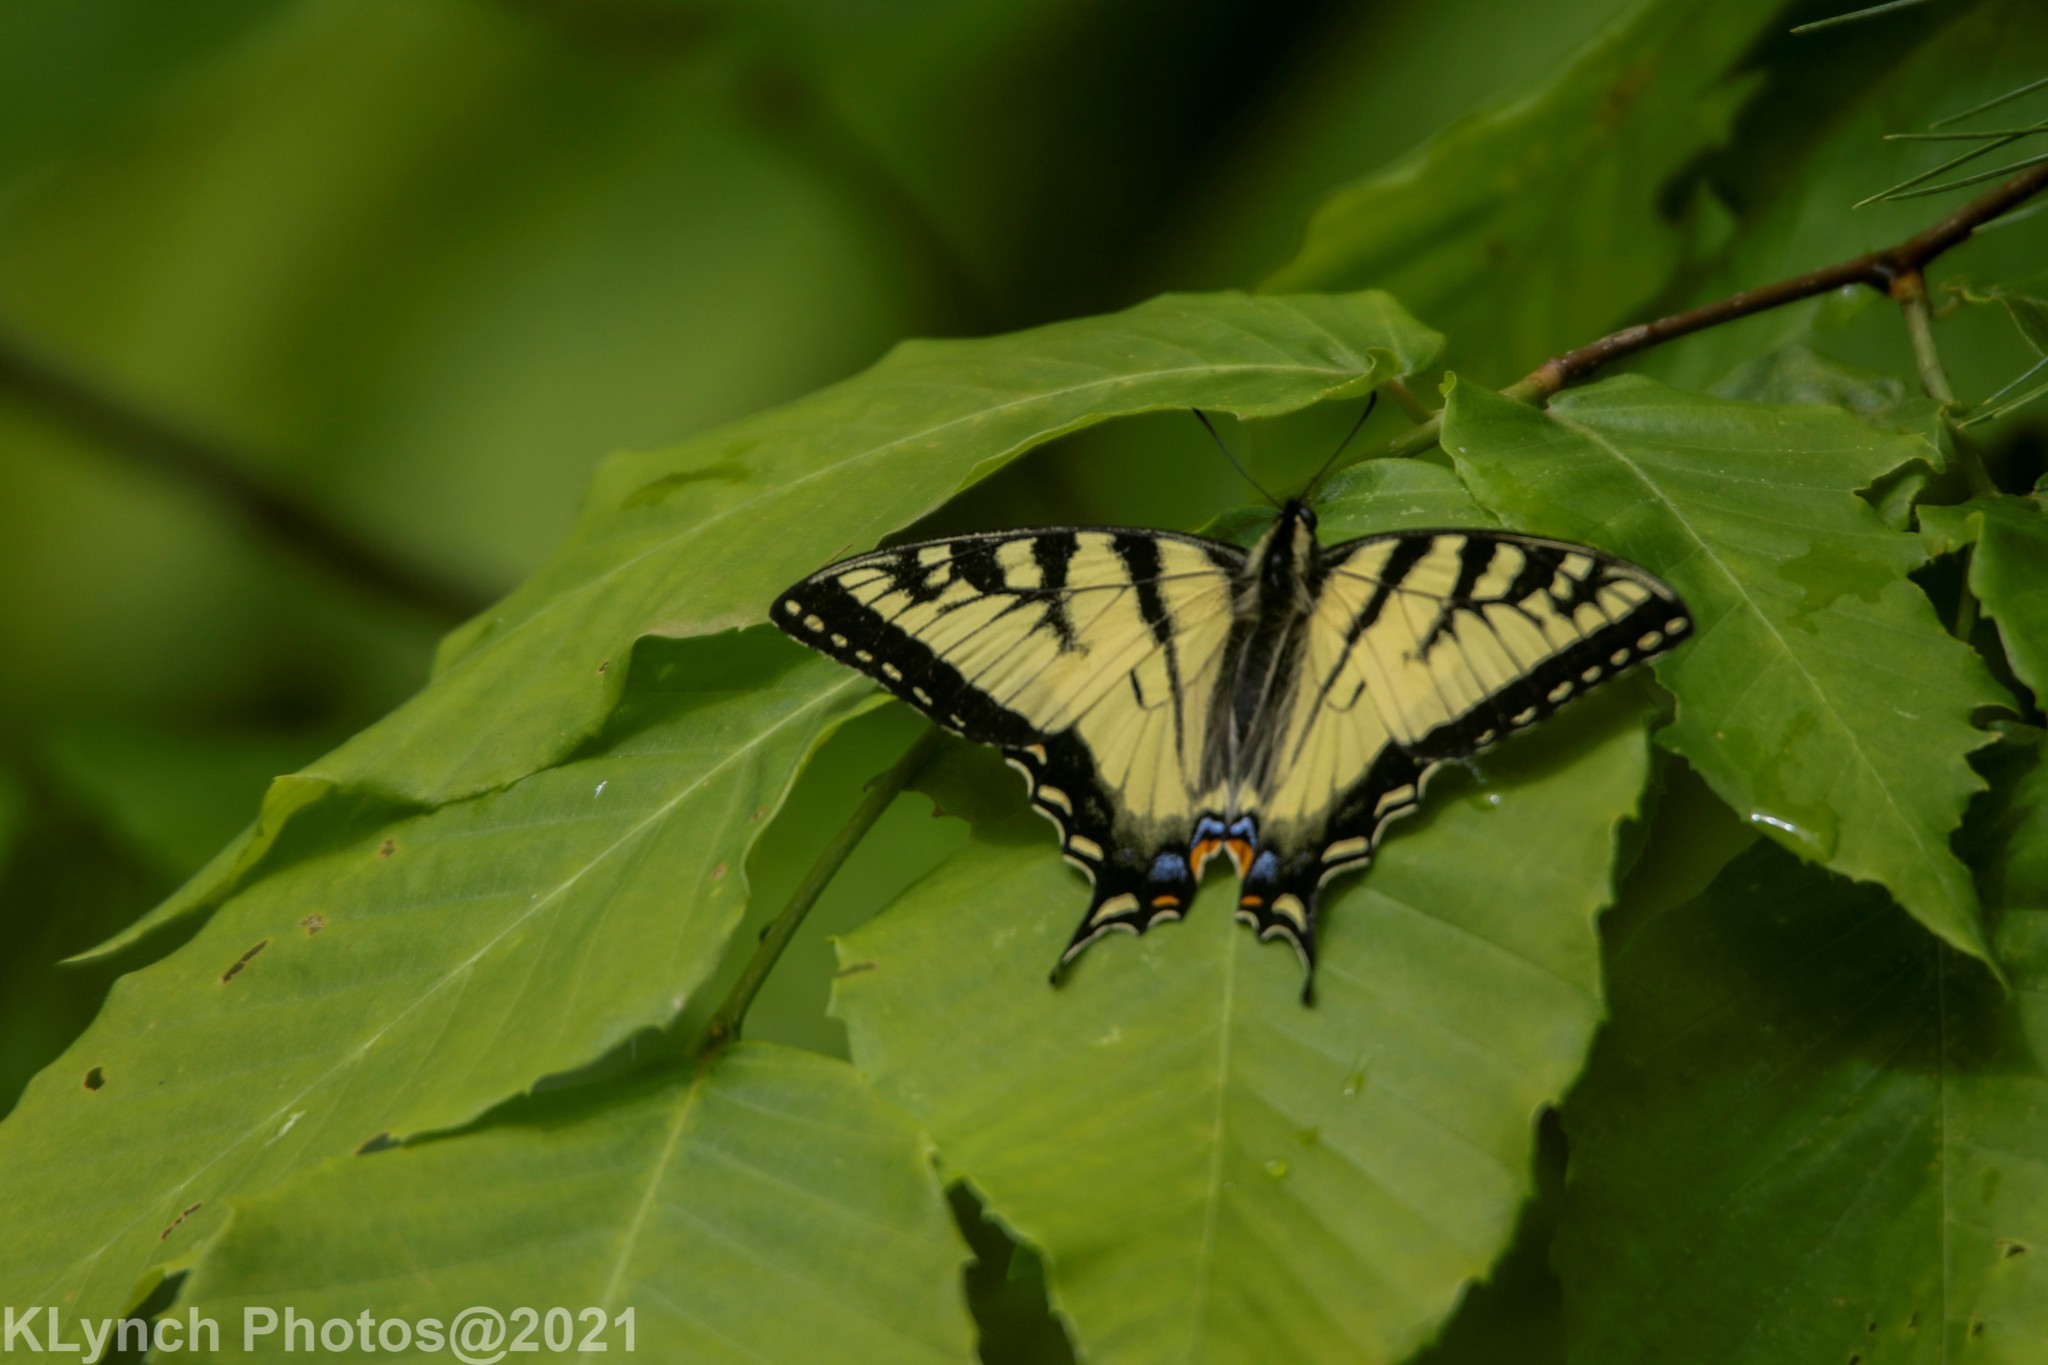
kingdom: Animalia
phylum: Arthropoda
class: Insecta
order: Lepidoptera
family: Papilionidae
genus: Papilio
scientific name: Papilio canadensis
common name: Canadian tiger swallowtail
